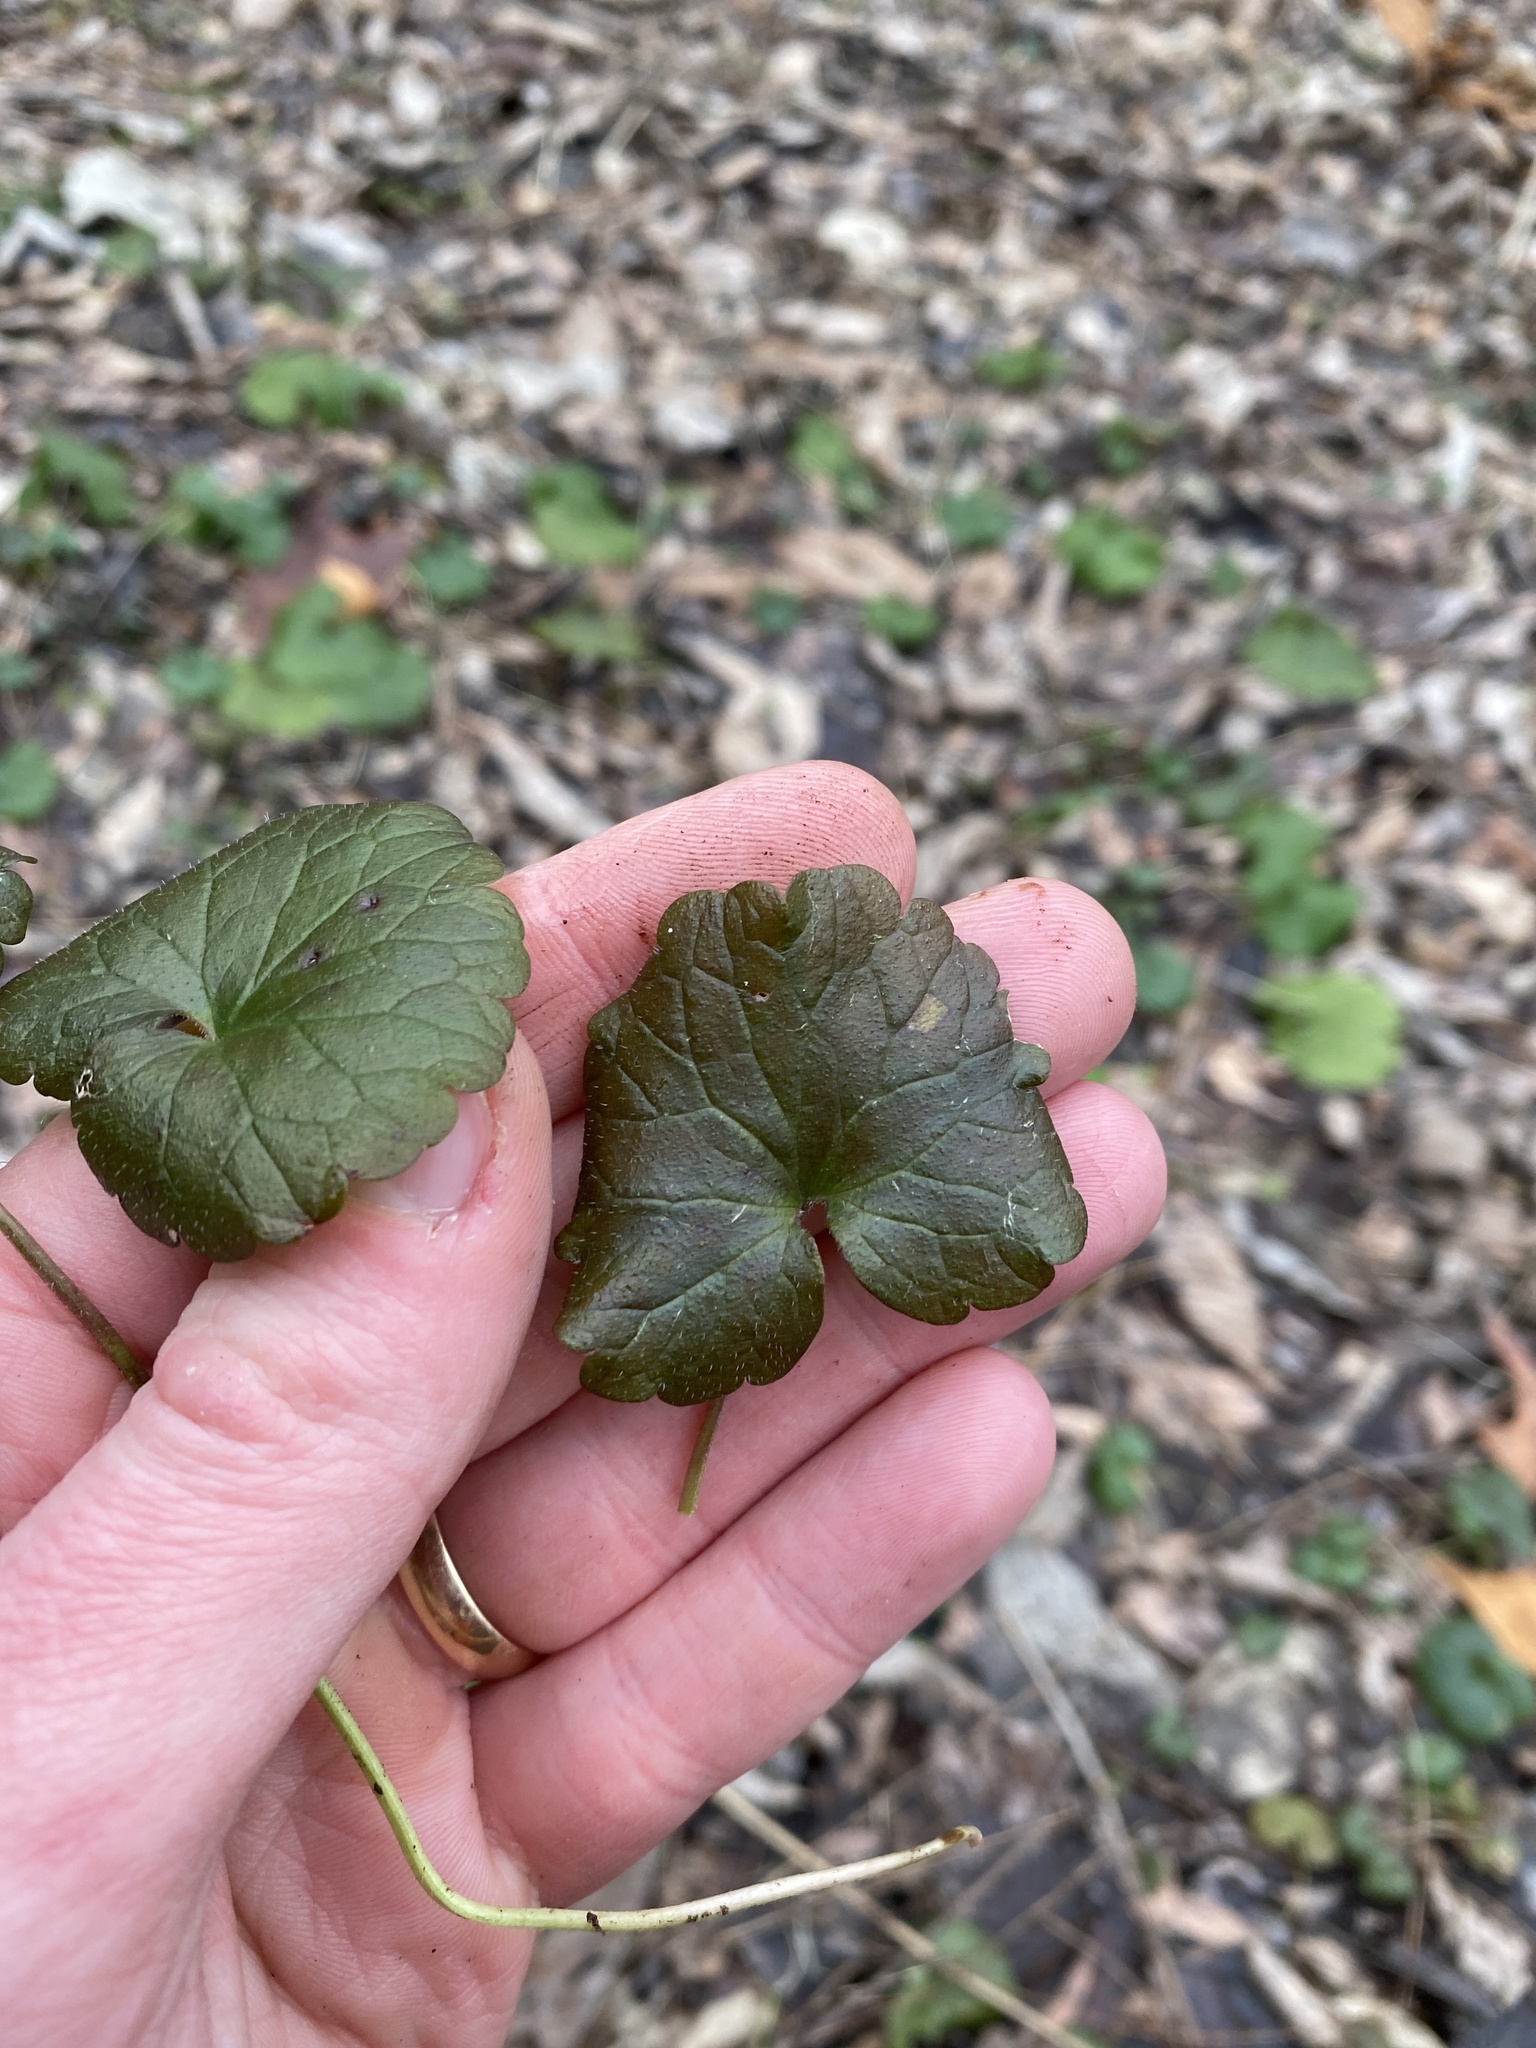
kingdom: Plantae
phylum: Tracheophyta
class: Magnoliopsida
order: Lamiales
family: Lamiaceae
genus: Glechoma
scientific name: Glechoma hederacea
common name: Ground ivy
